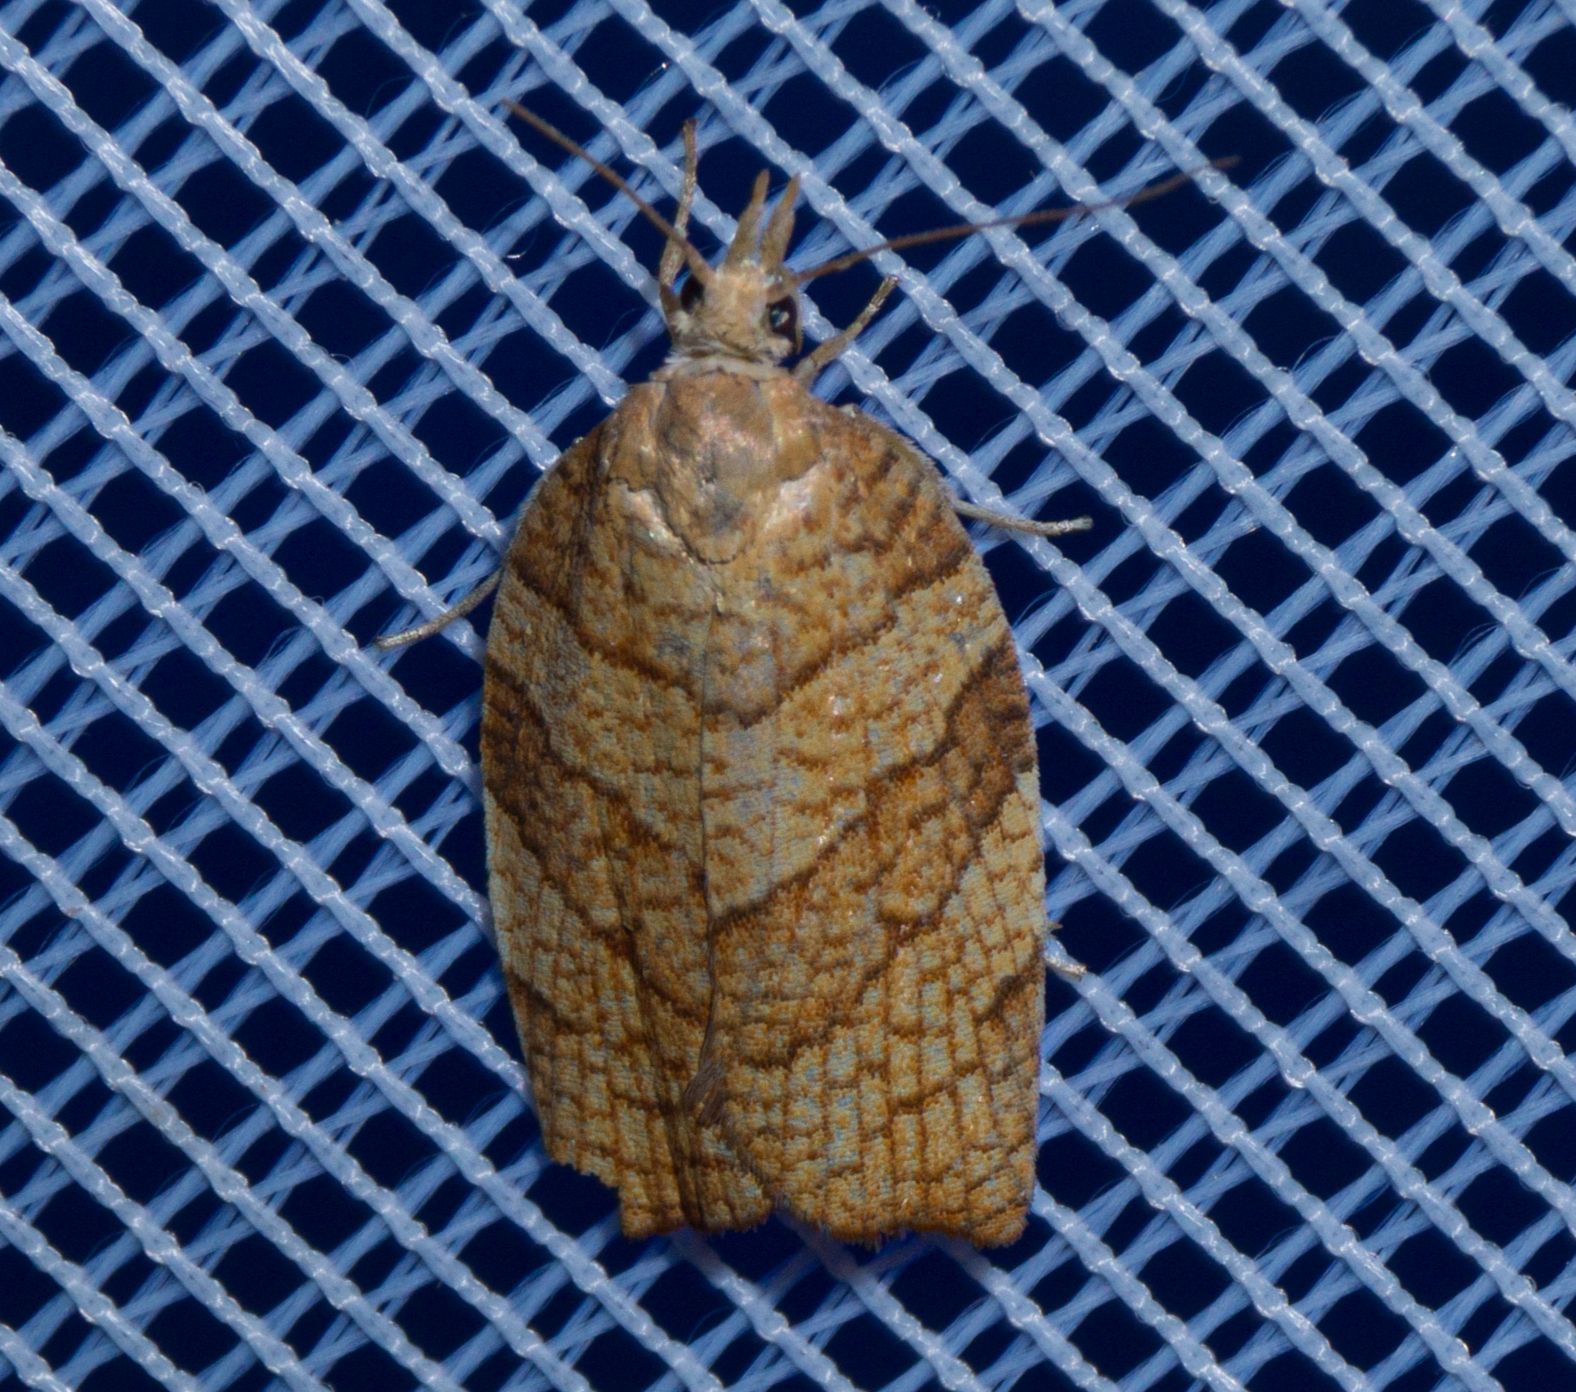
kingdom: Animalia
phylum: Arthropoda
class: Insecta
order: Lepidoptera
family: Tortricidae
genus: Pandemis
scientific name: Pandemis corylana
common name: Chequered fruit-tree tortrix
